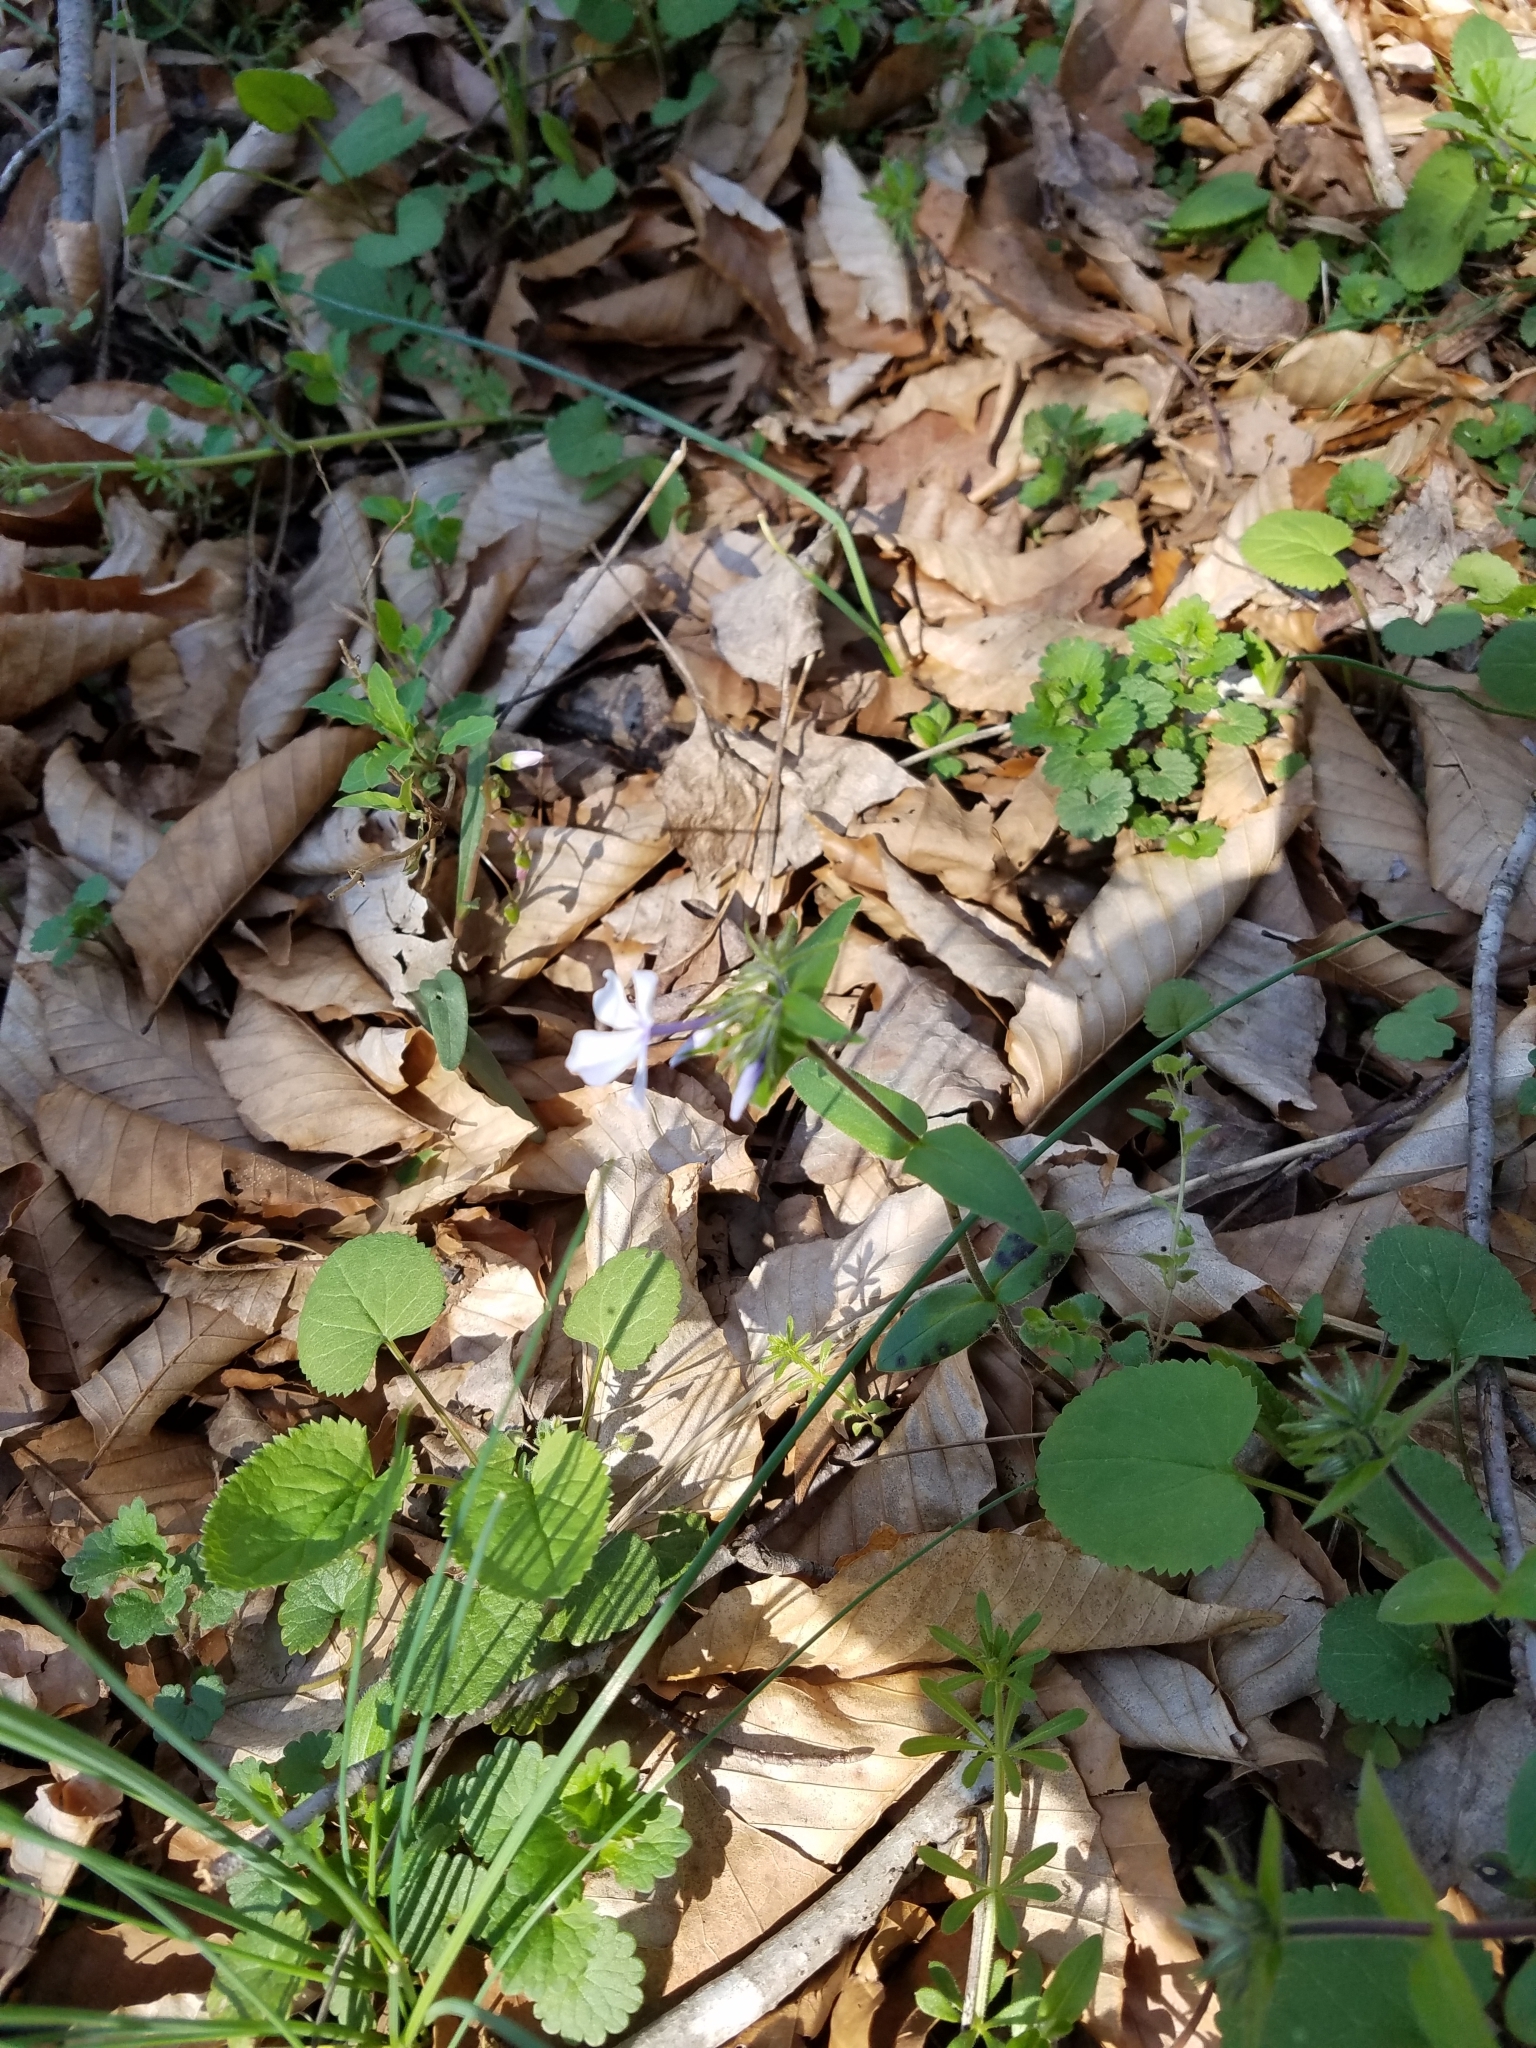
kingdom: Plantae
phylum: Tracheophyta
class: Magnoliopsida
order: Ericales
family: Polemoniaceae
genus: Phlox
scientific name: Phlox divaricata
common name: Blue phlox
